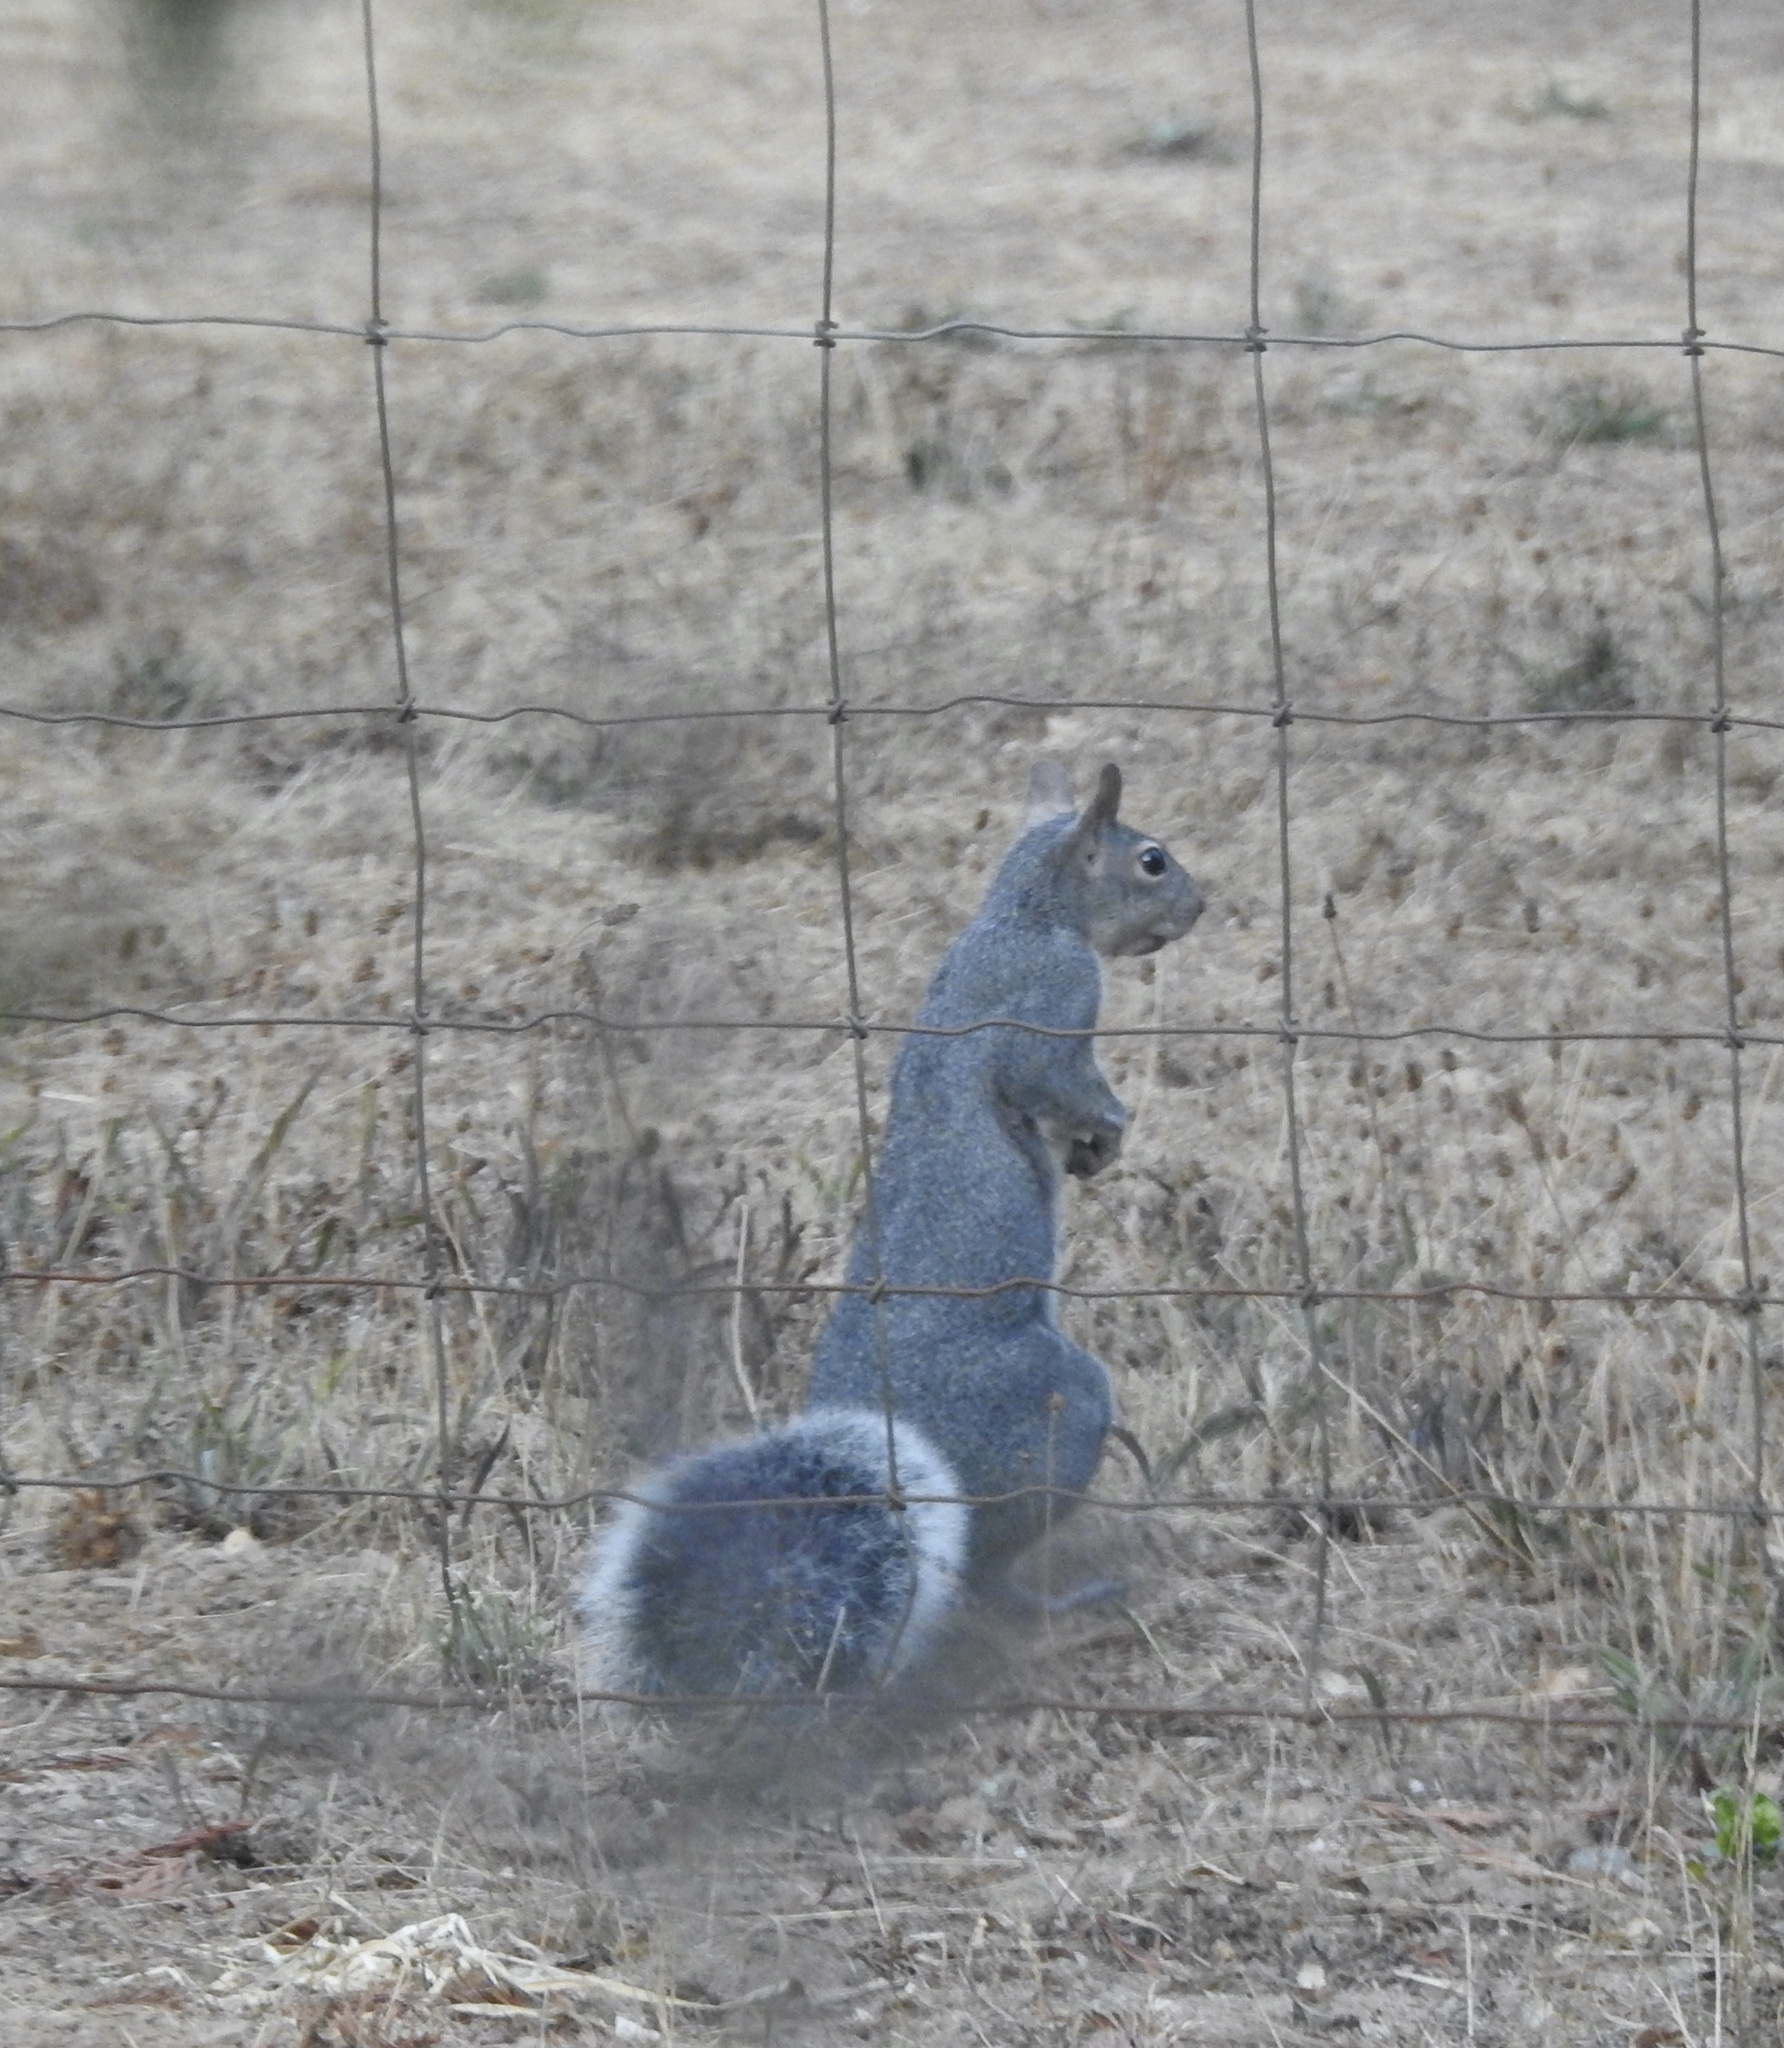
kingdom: Animalia
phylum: Chordata
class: Mammalia
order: Rodentia
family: Sciuridae
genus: Sciurus
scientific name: Sciurus griseus
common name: Western gray squirrel
